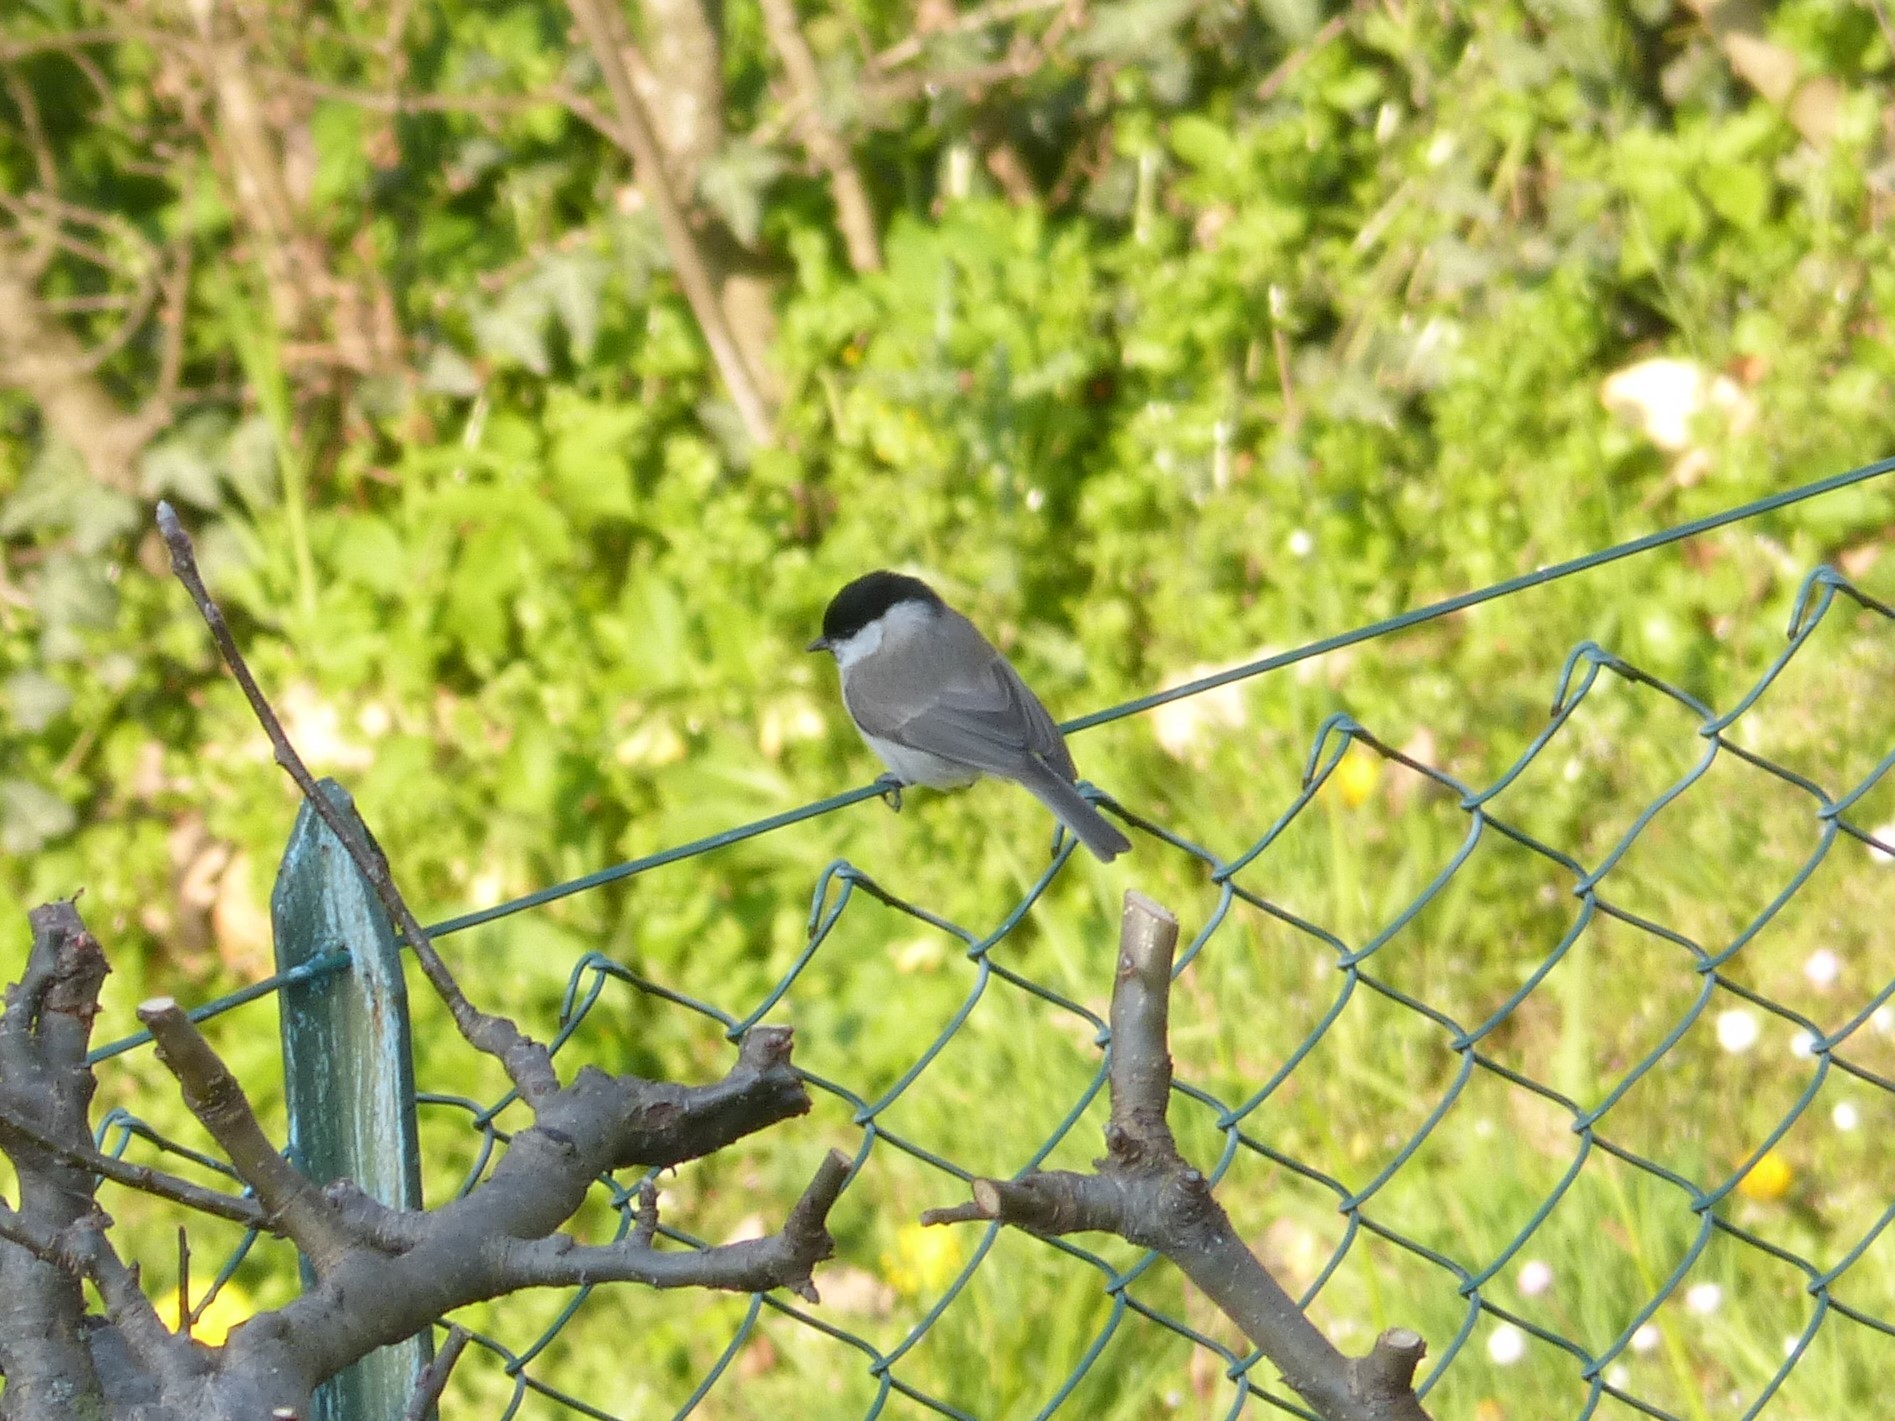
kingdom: Animalia
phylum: Chordata
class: Aves
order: Passeriformes
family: Paridae
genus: Poecile
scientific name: Poecile palustris
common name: Marsh tit
